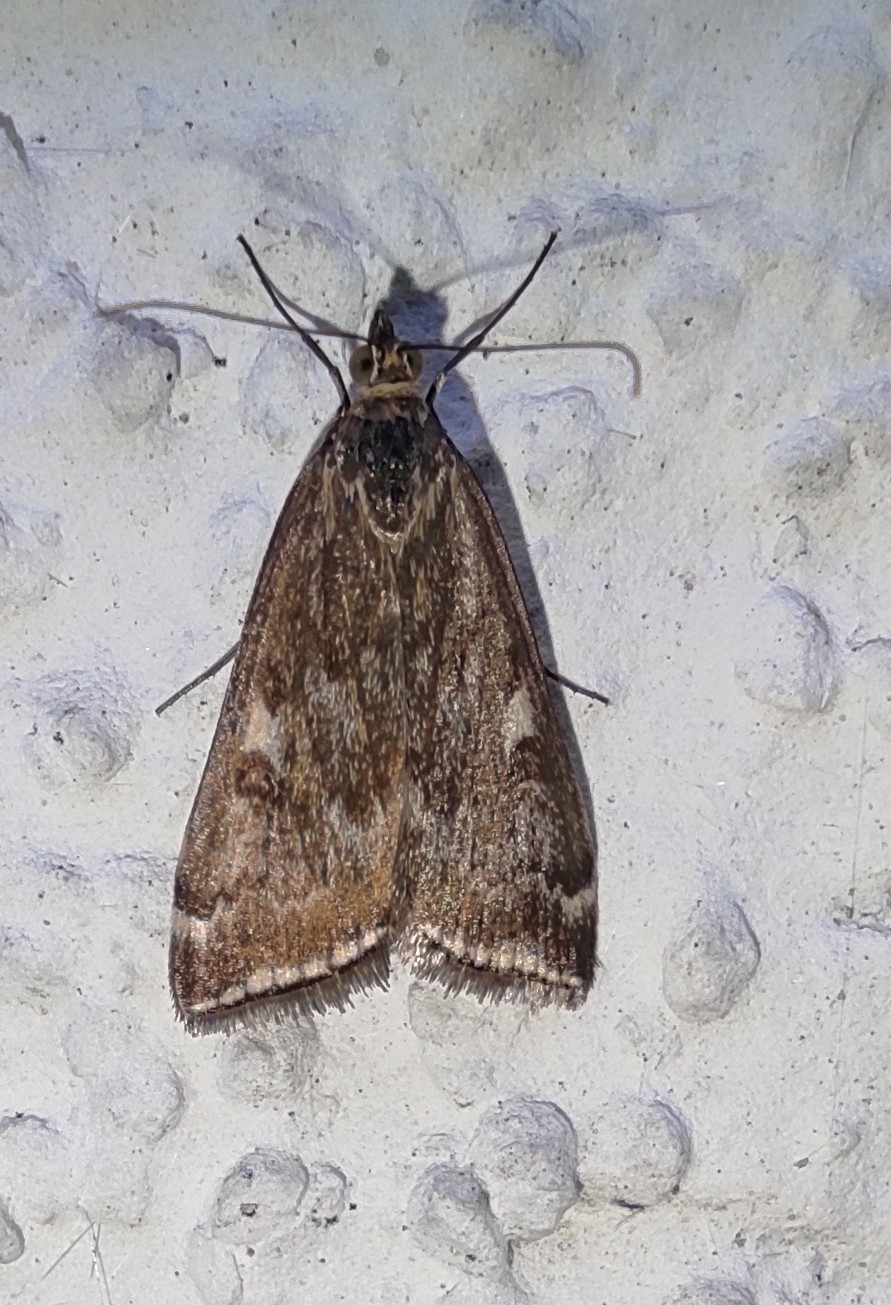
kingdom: Animalia
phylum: Arthropoda
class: Insecta
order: Lepidoptera
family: Crambidae
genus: Loxostege
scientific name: Loxostege sticticalis
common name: Crambid moth
